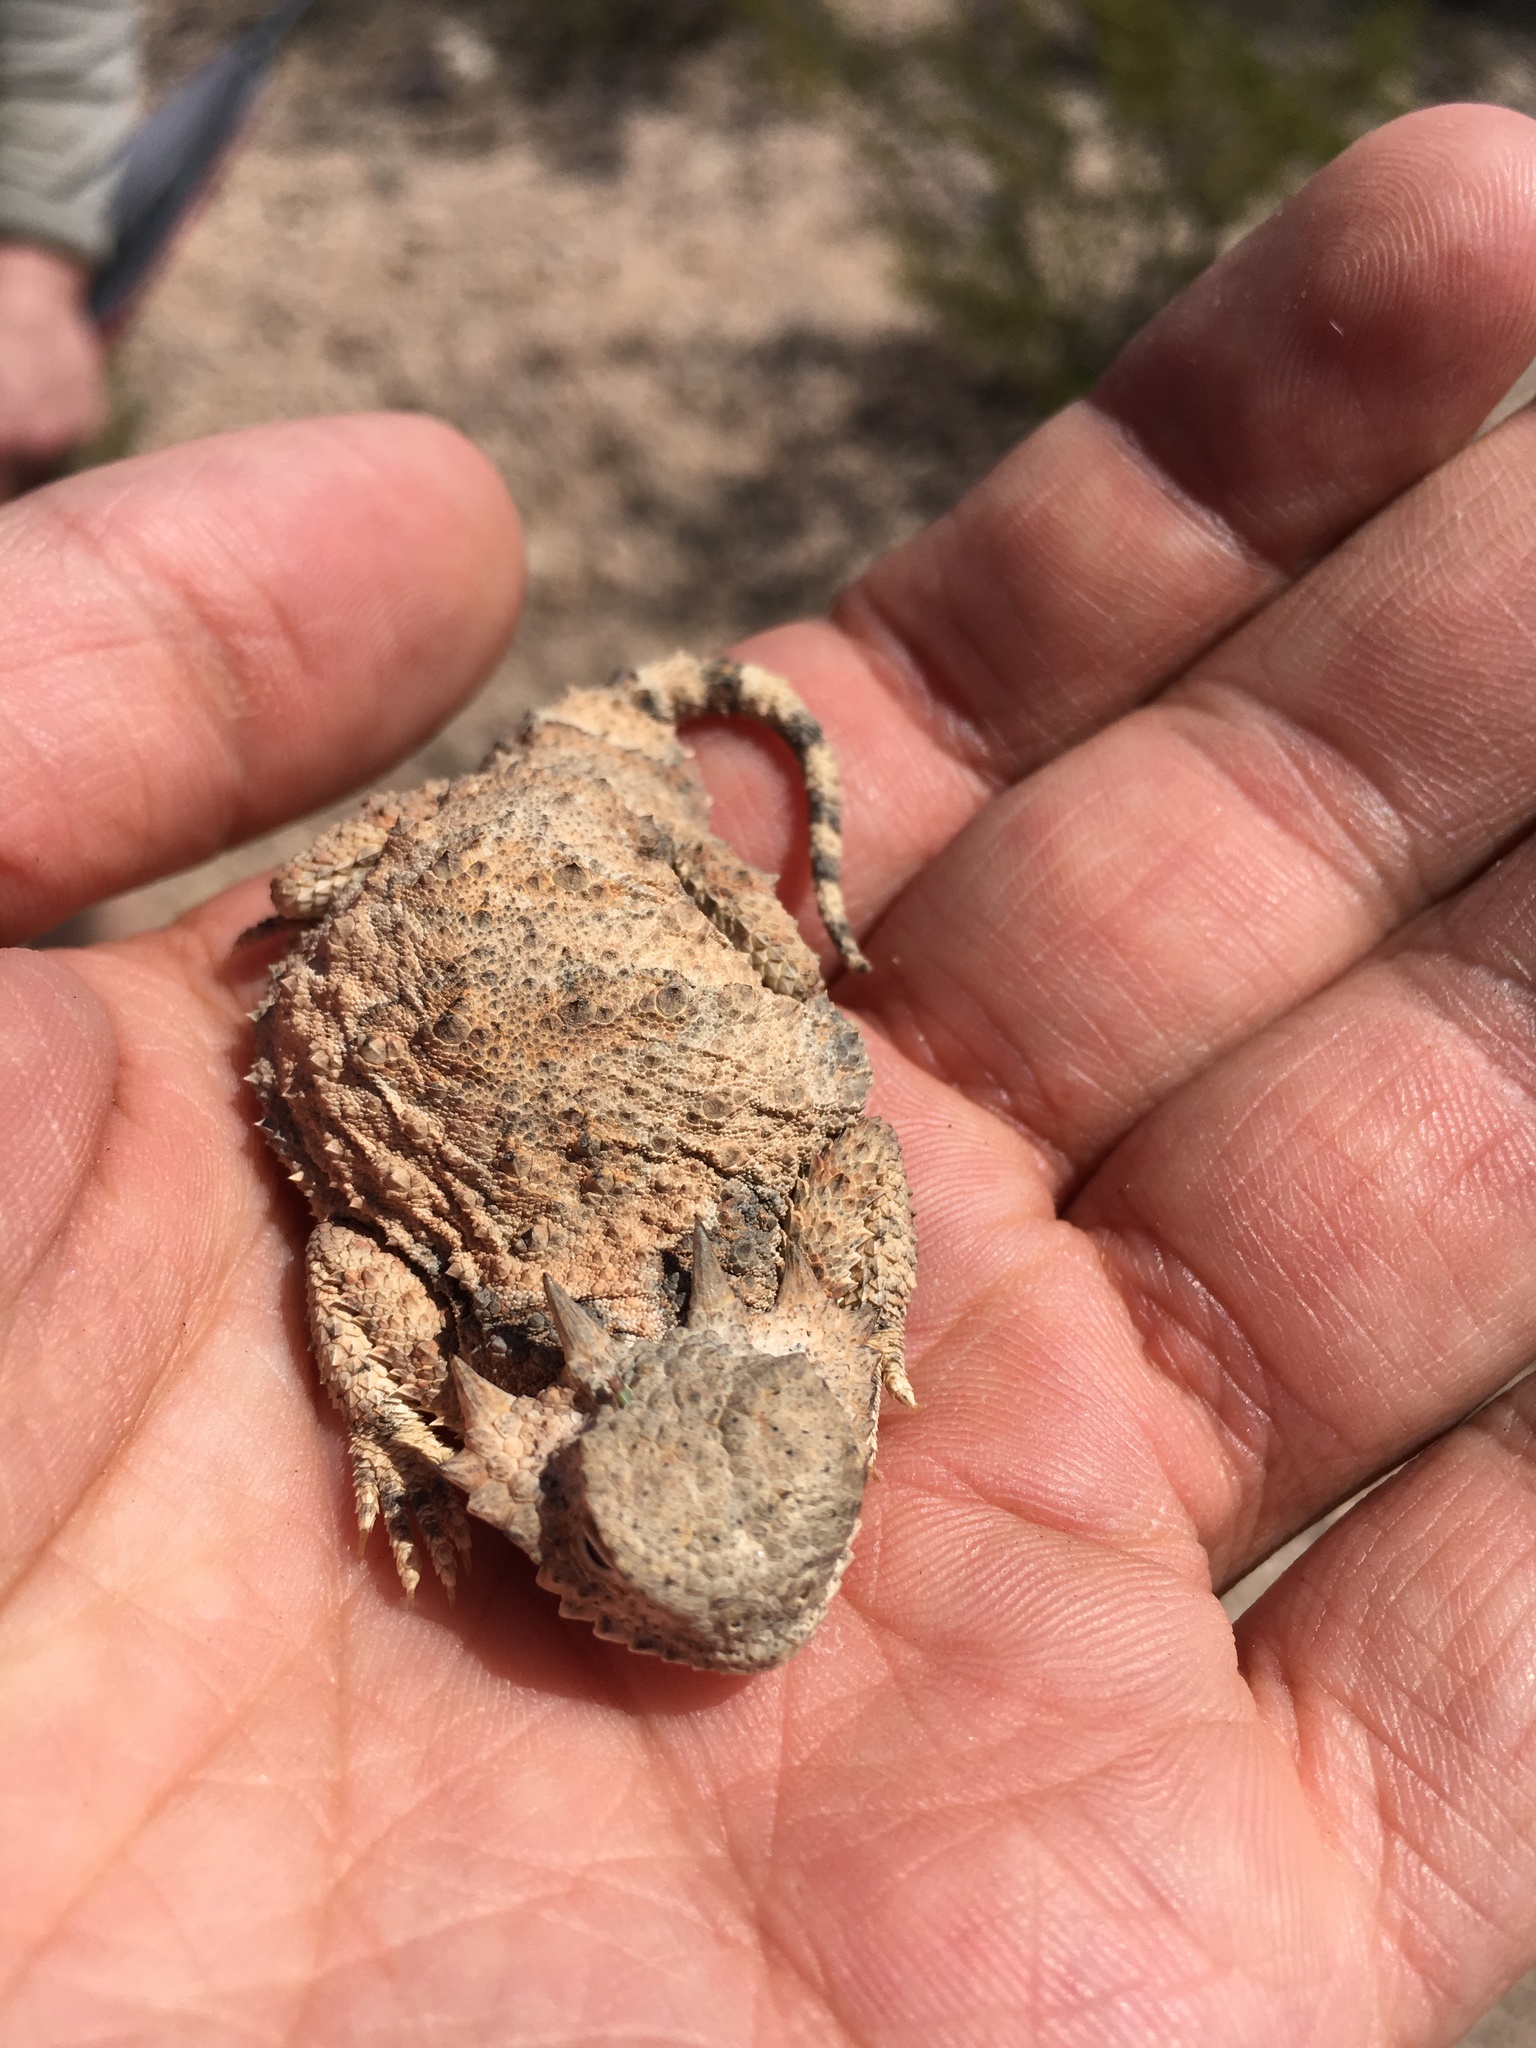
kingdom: Animalia
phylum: Chordata
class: Squamata
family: Phrynosomatidae
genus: Phrynosoma
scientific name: Phrynosoma modestum
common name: Roundtail horned lizard
